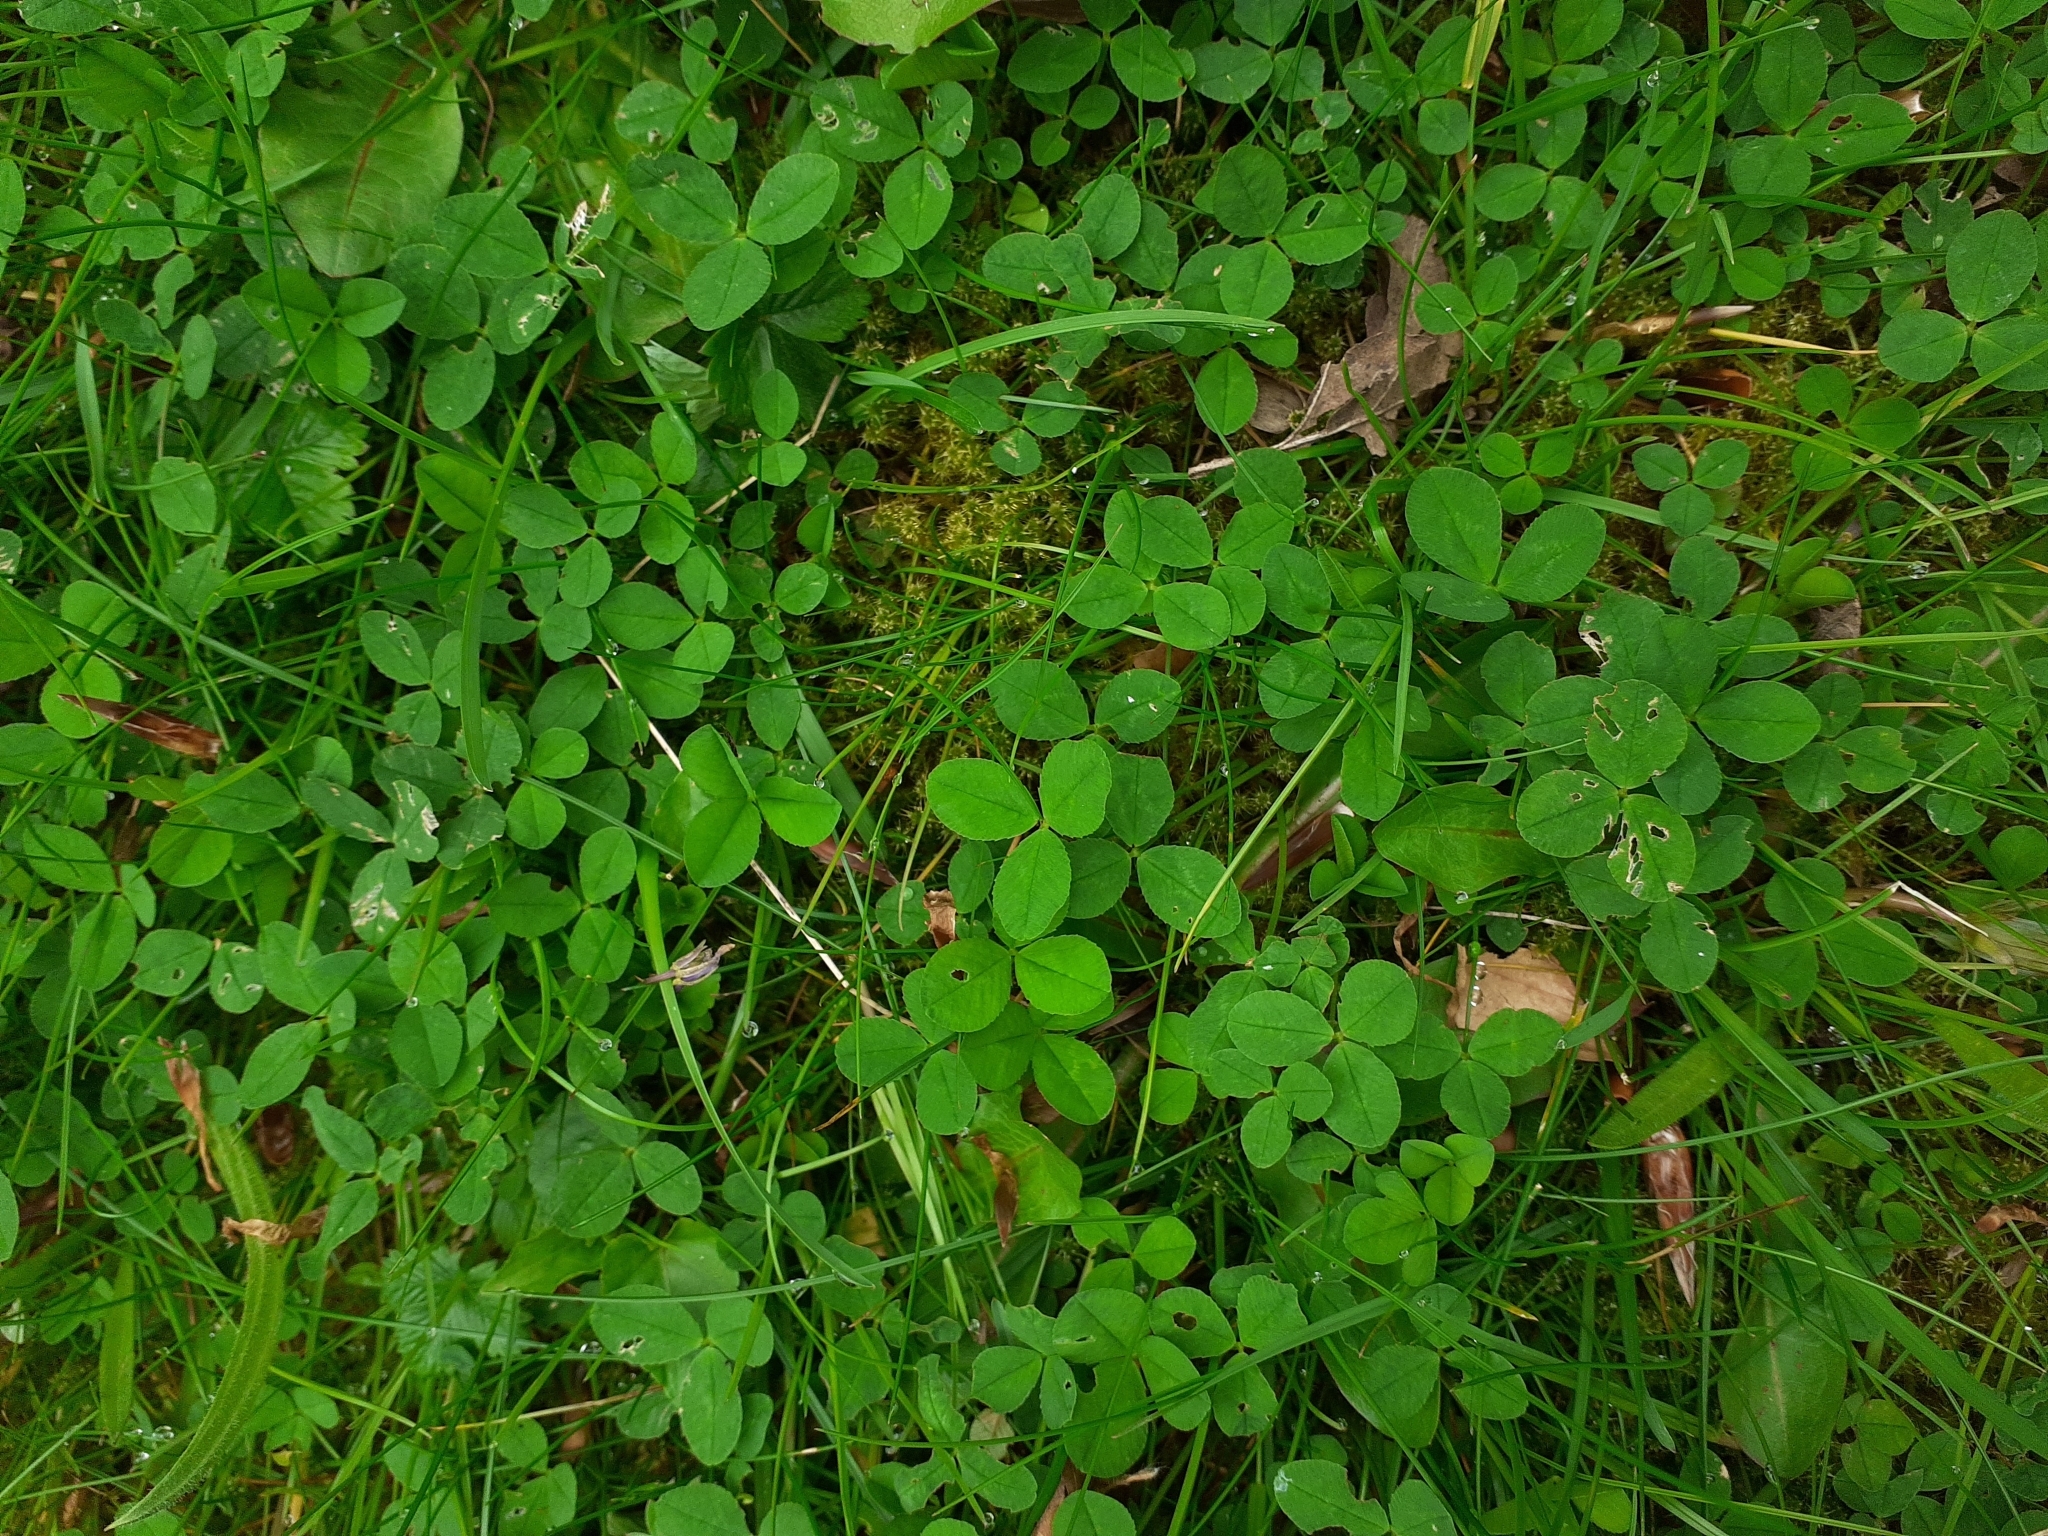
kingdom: Plantae
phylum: Tracheophyta
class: Magnoliopsida
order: Fabales
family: Fabaceae
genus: Trifolium
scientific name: Trifolium repens
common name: White clover
